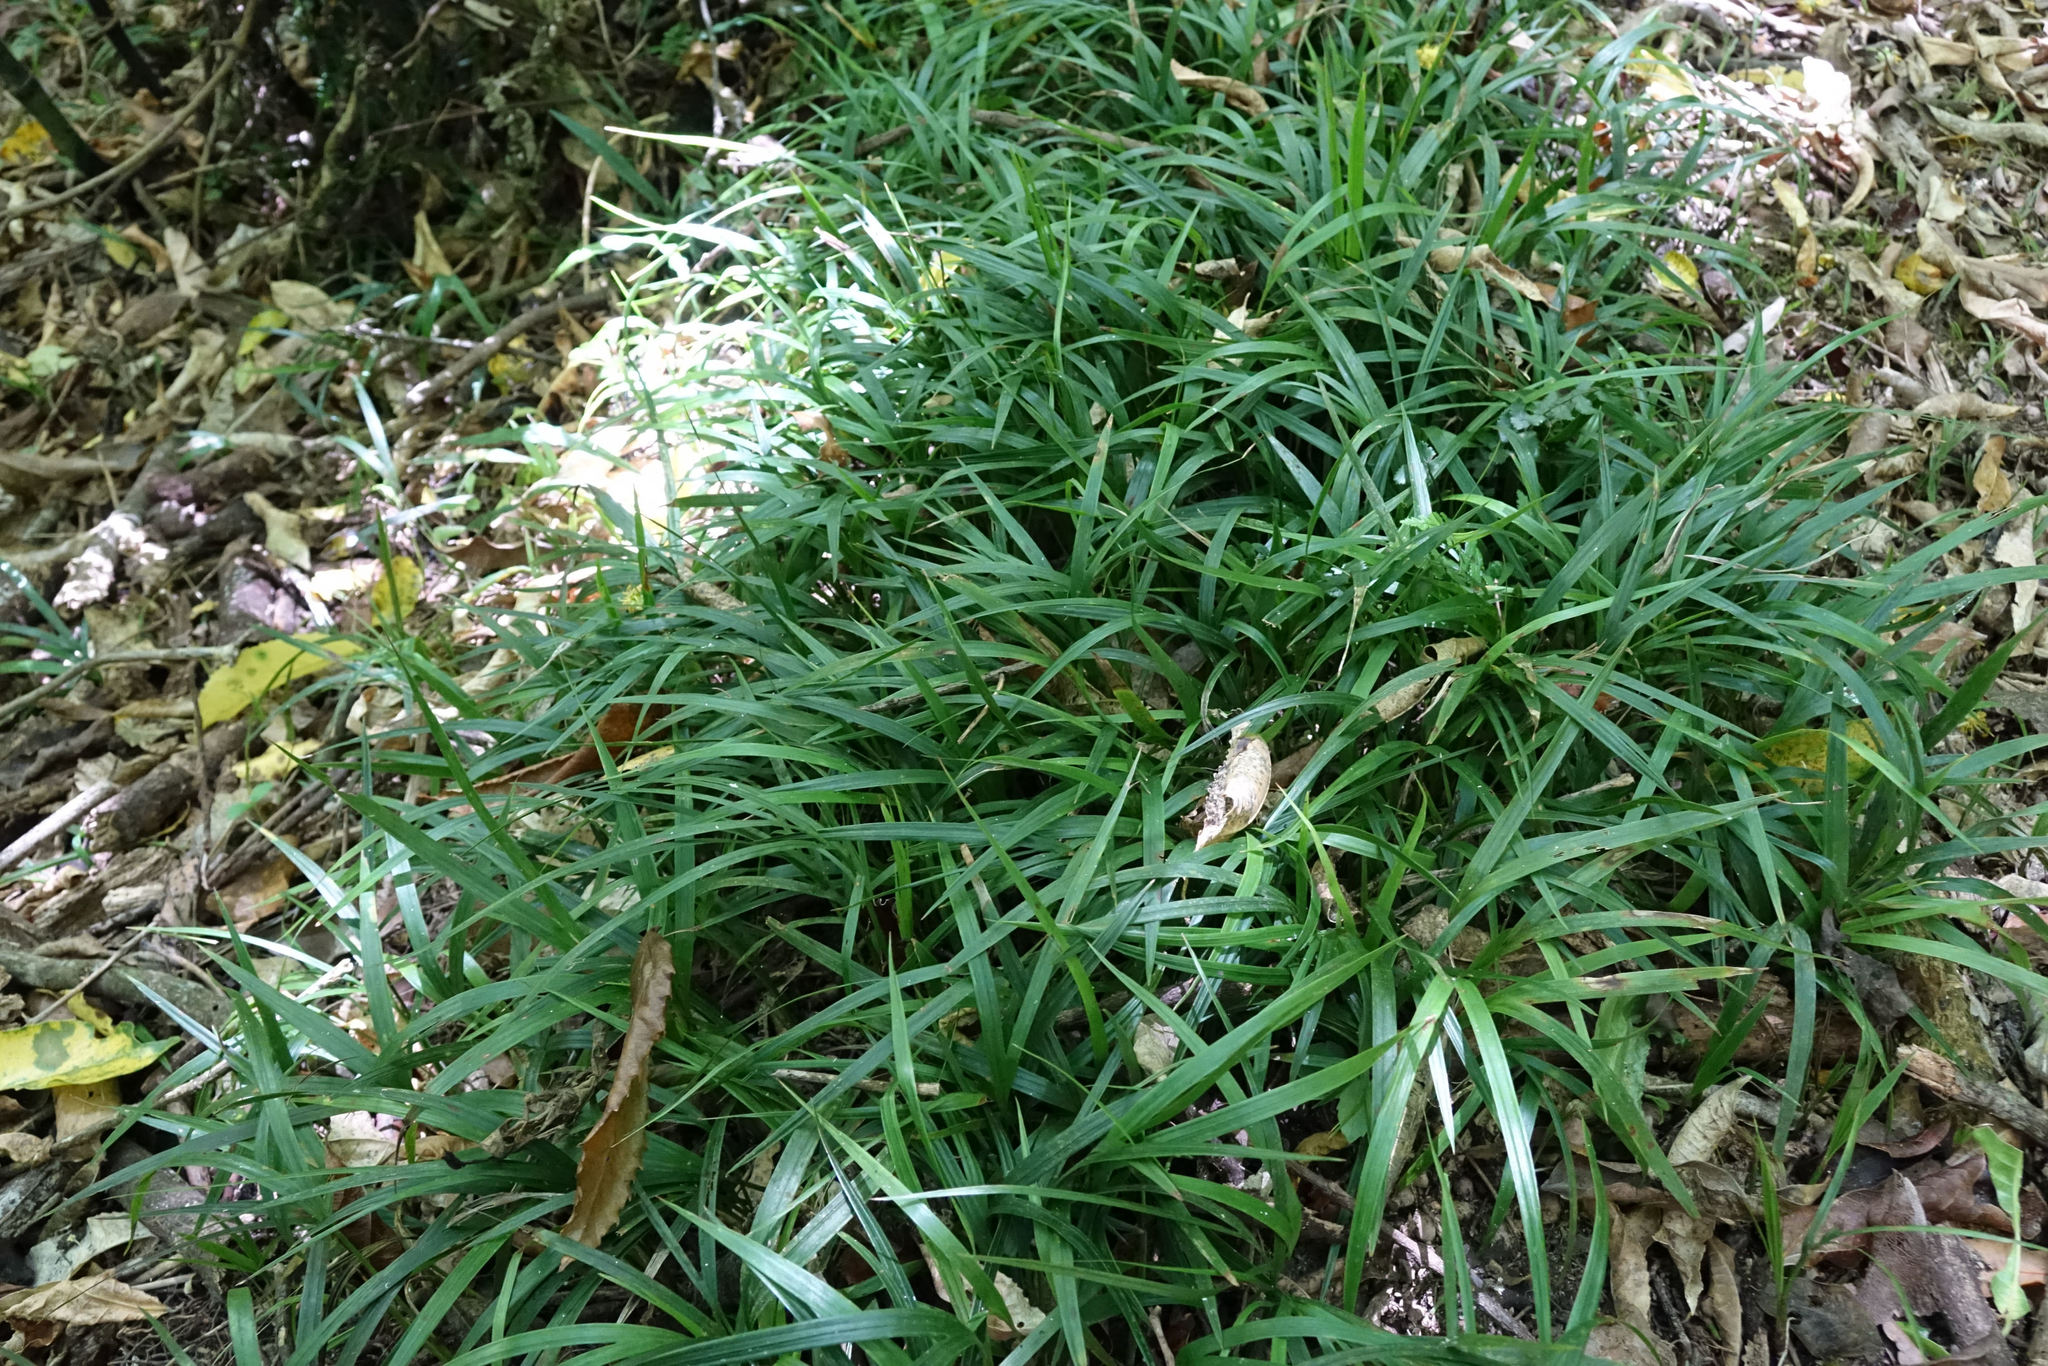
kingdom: Plantae
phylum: Tracheophyta
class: Liliopsida
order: Arecales
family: Arecaceae
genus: Rhopalostylis
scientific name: Rhopalostylis sapida
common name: Feather-duster palm
